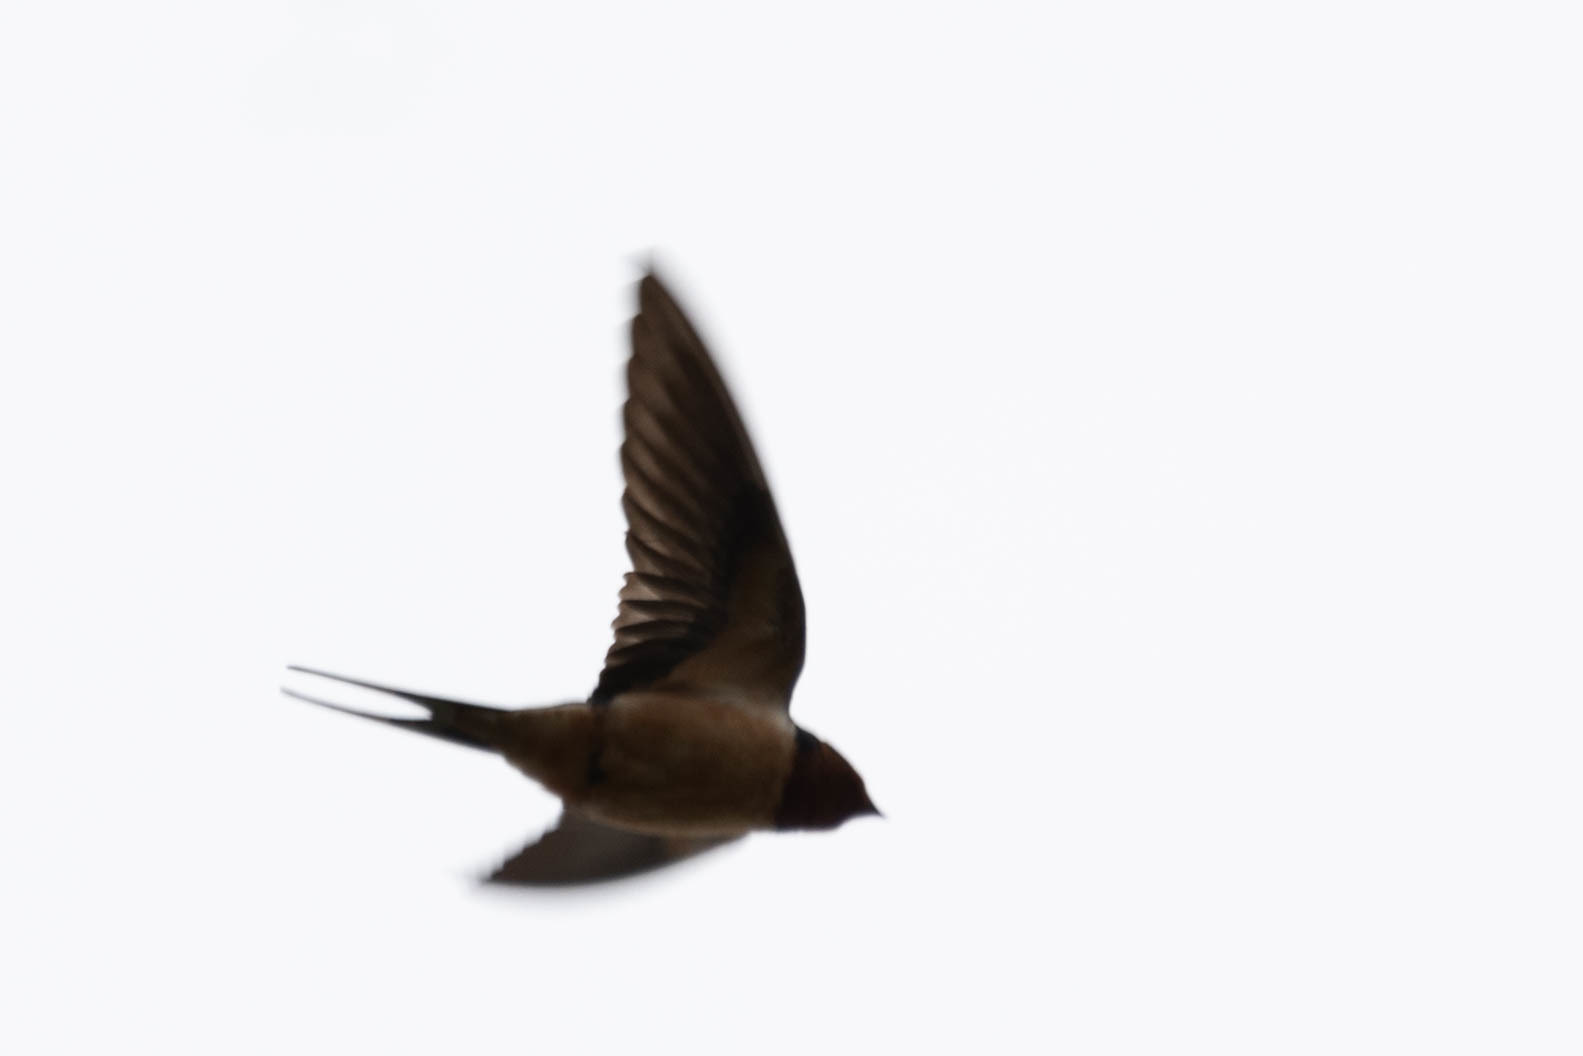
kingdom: Animalia
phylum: Chordata
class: Aves
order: Passeriformes
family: Hirundinidae
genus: Hirundo
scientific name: Hirundo rustica
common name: Barn swallow
